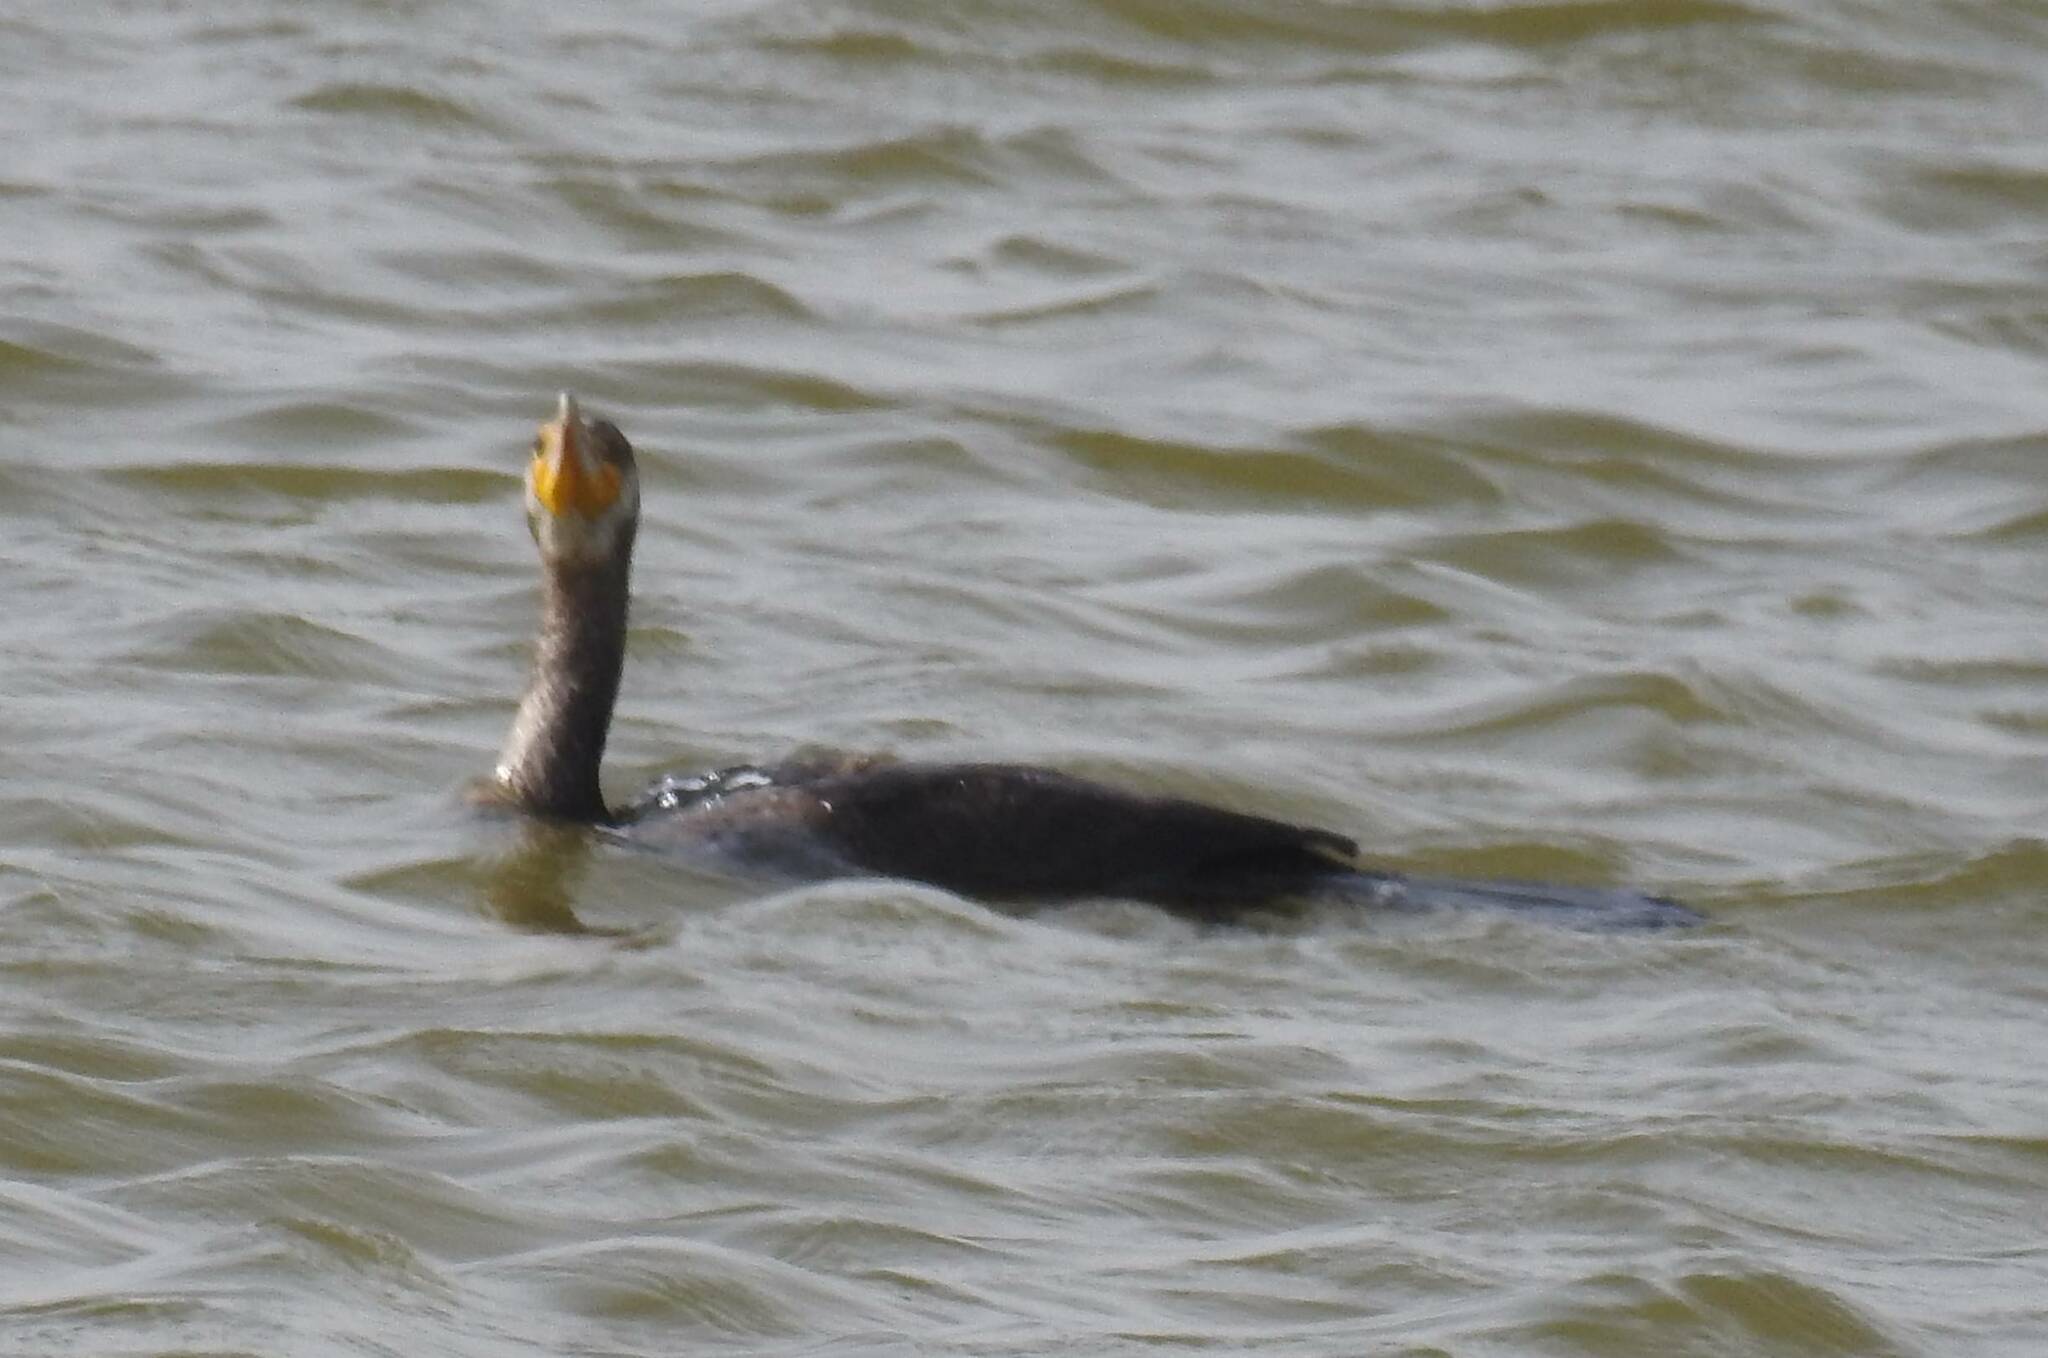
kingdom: Animalia
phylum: Chordata
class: Aves
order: Suliformes
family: Phalacrocoracidae
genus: Phalacrocorax
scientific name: Phalacrocorax carbo
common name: Great cormorant
